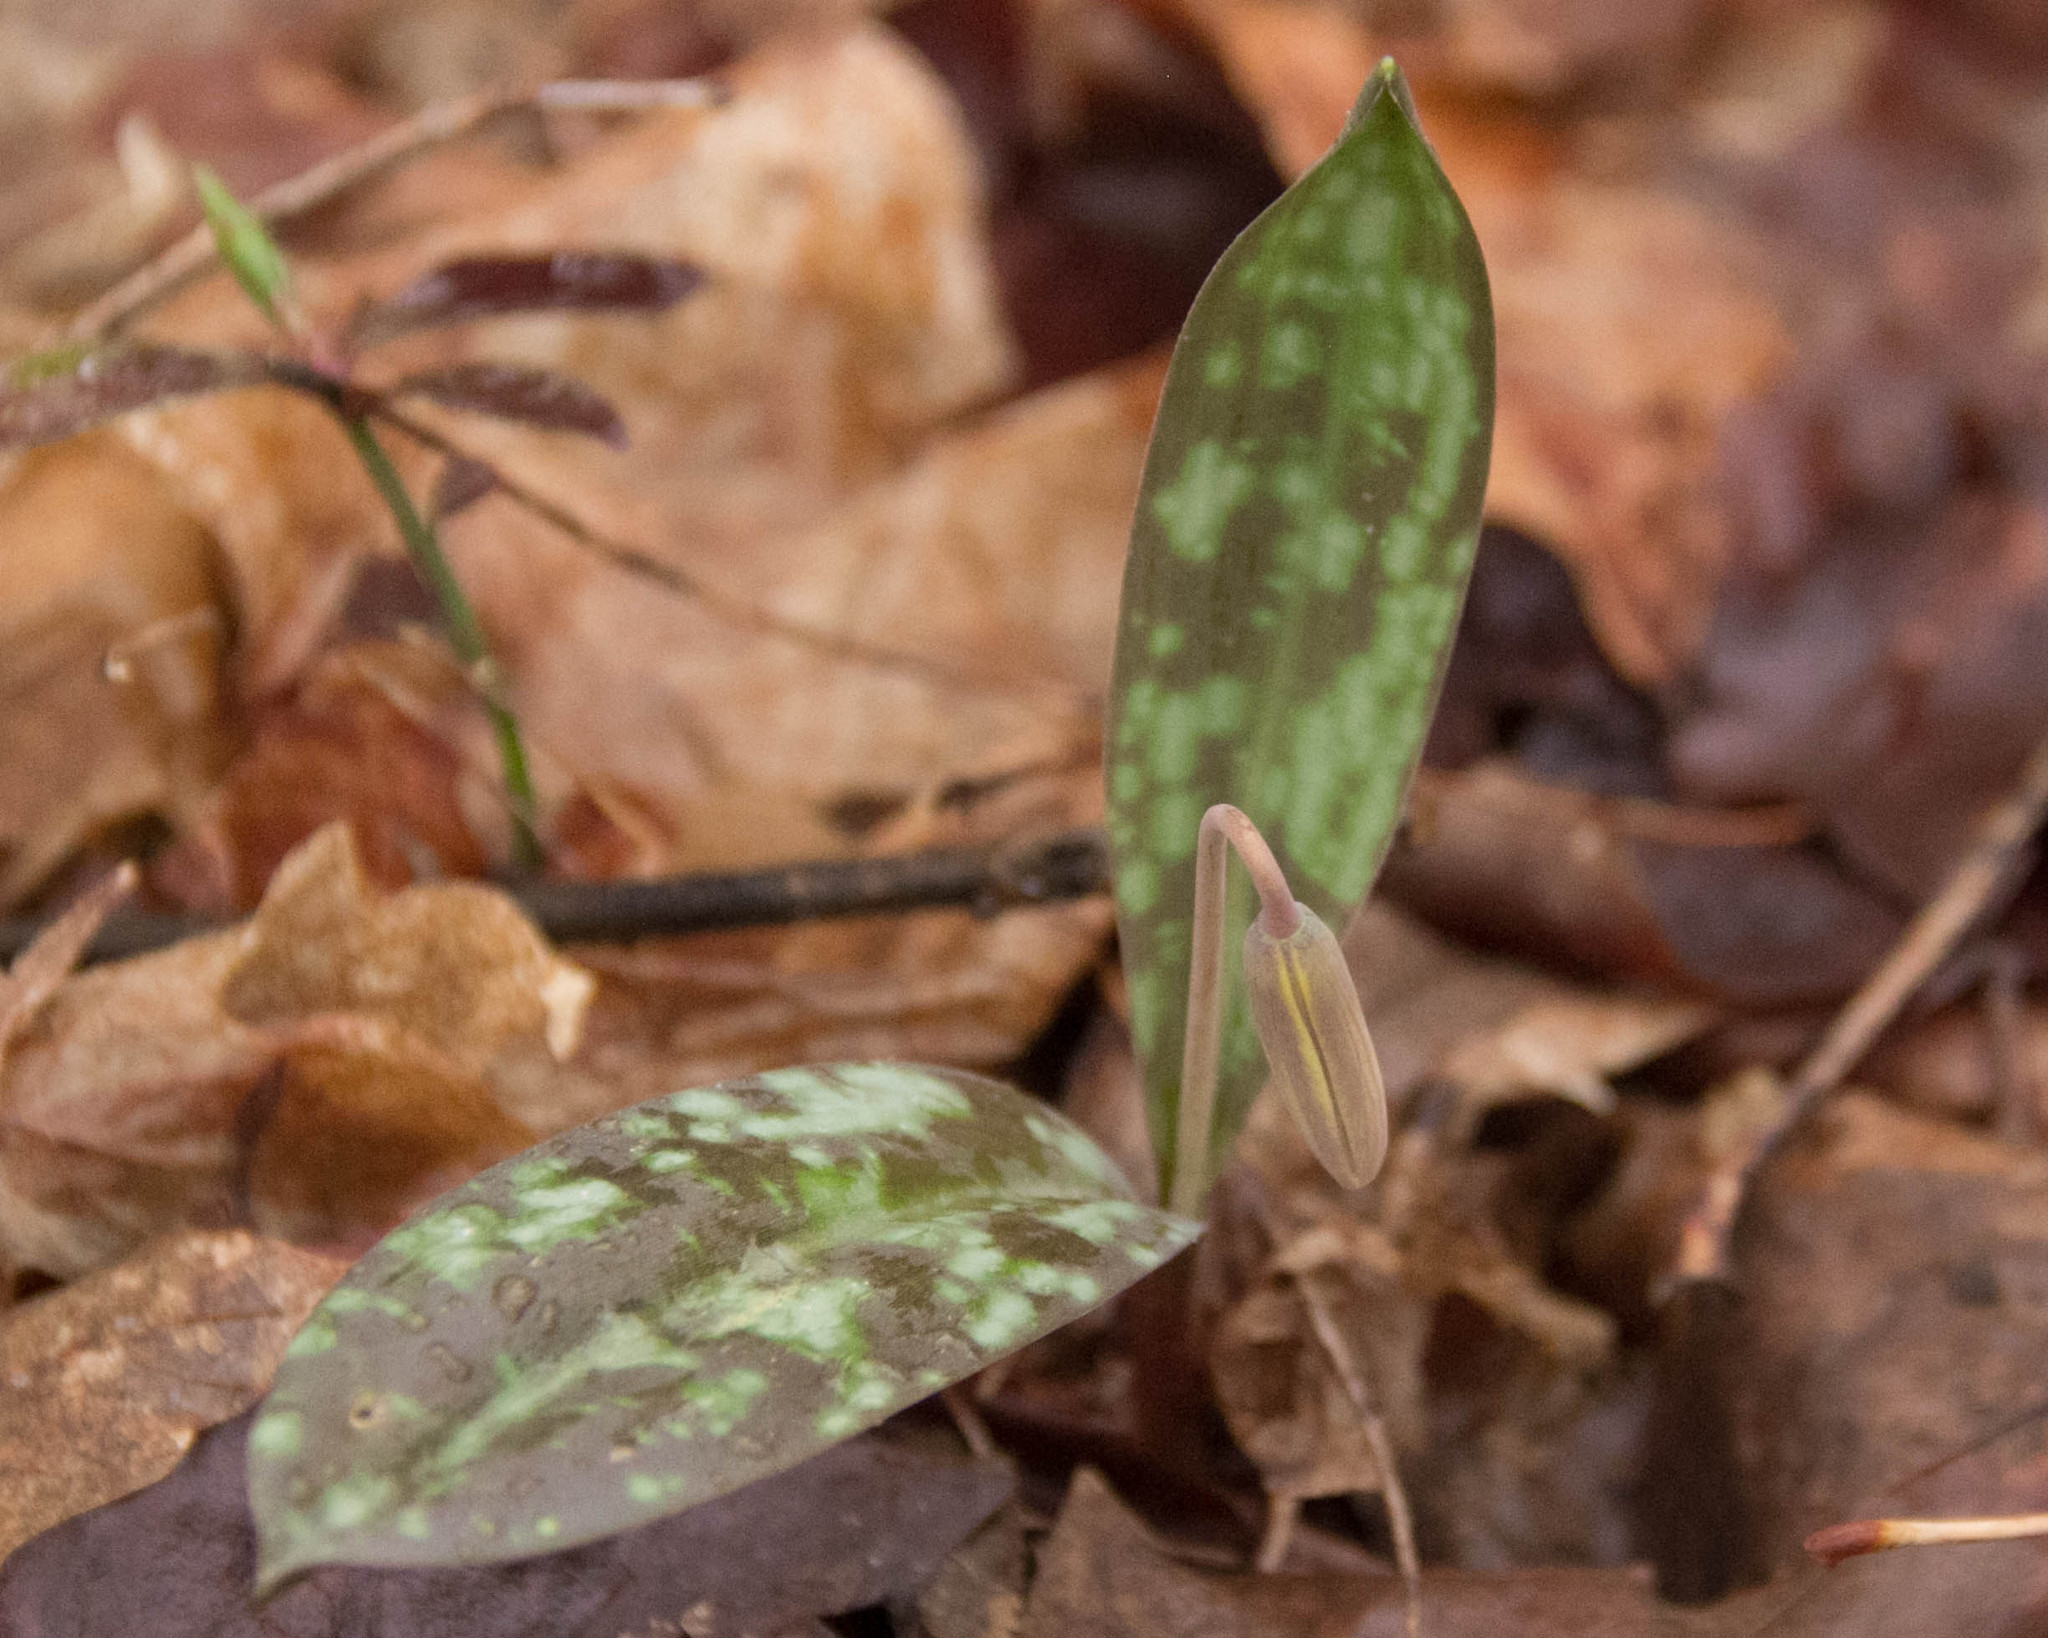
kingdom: Plantae
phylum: Tracheophyta
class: Liliopsida
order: Liliales
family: Liliaceae
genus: Erythronium
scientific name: Erythronium americanum
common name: Yellow adder's-tongue
